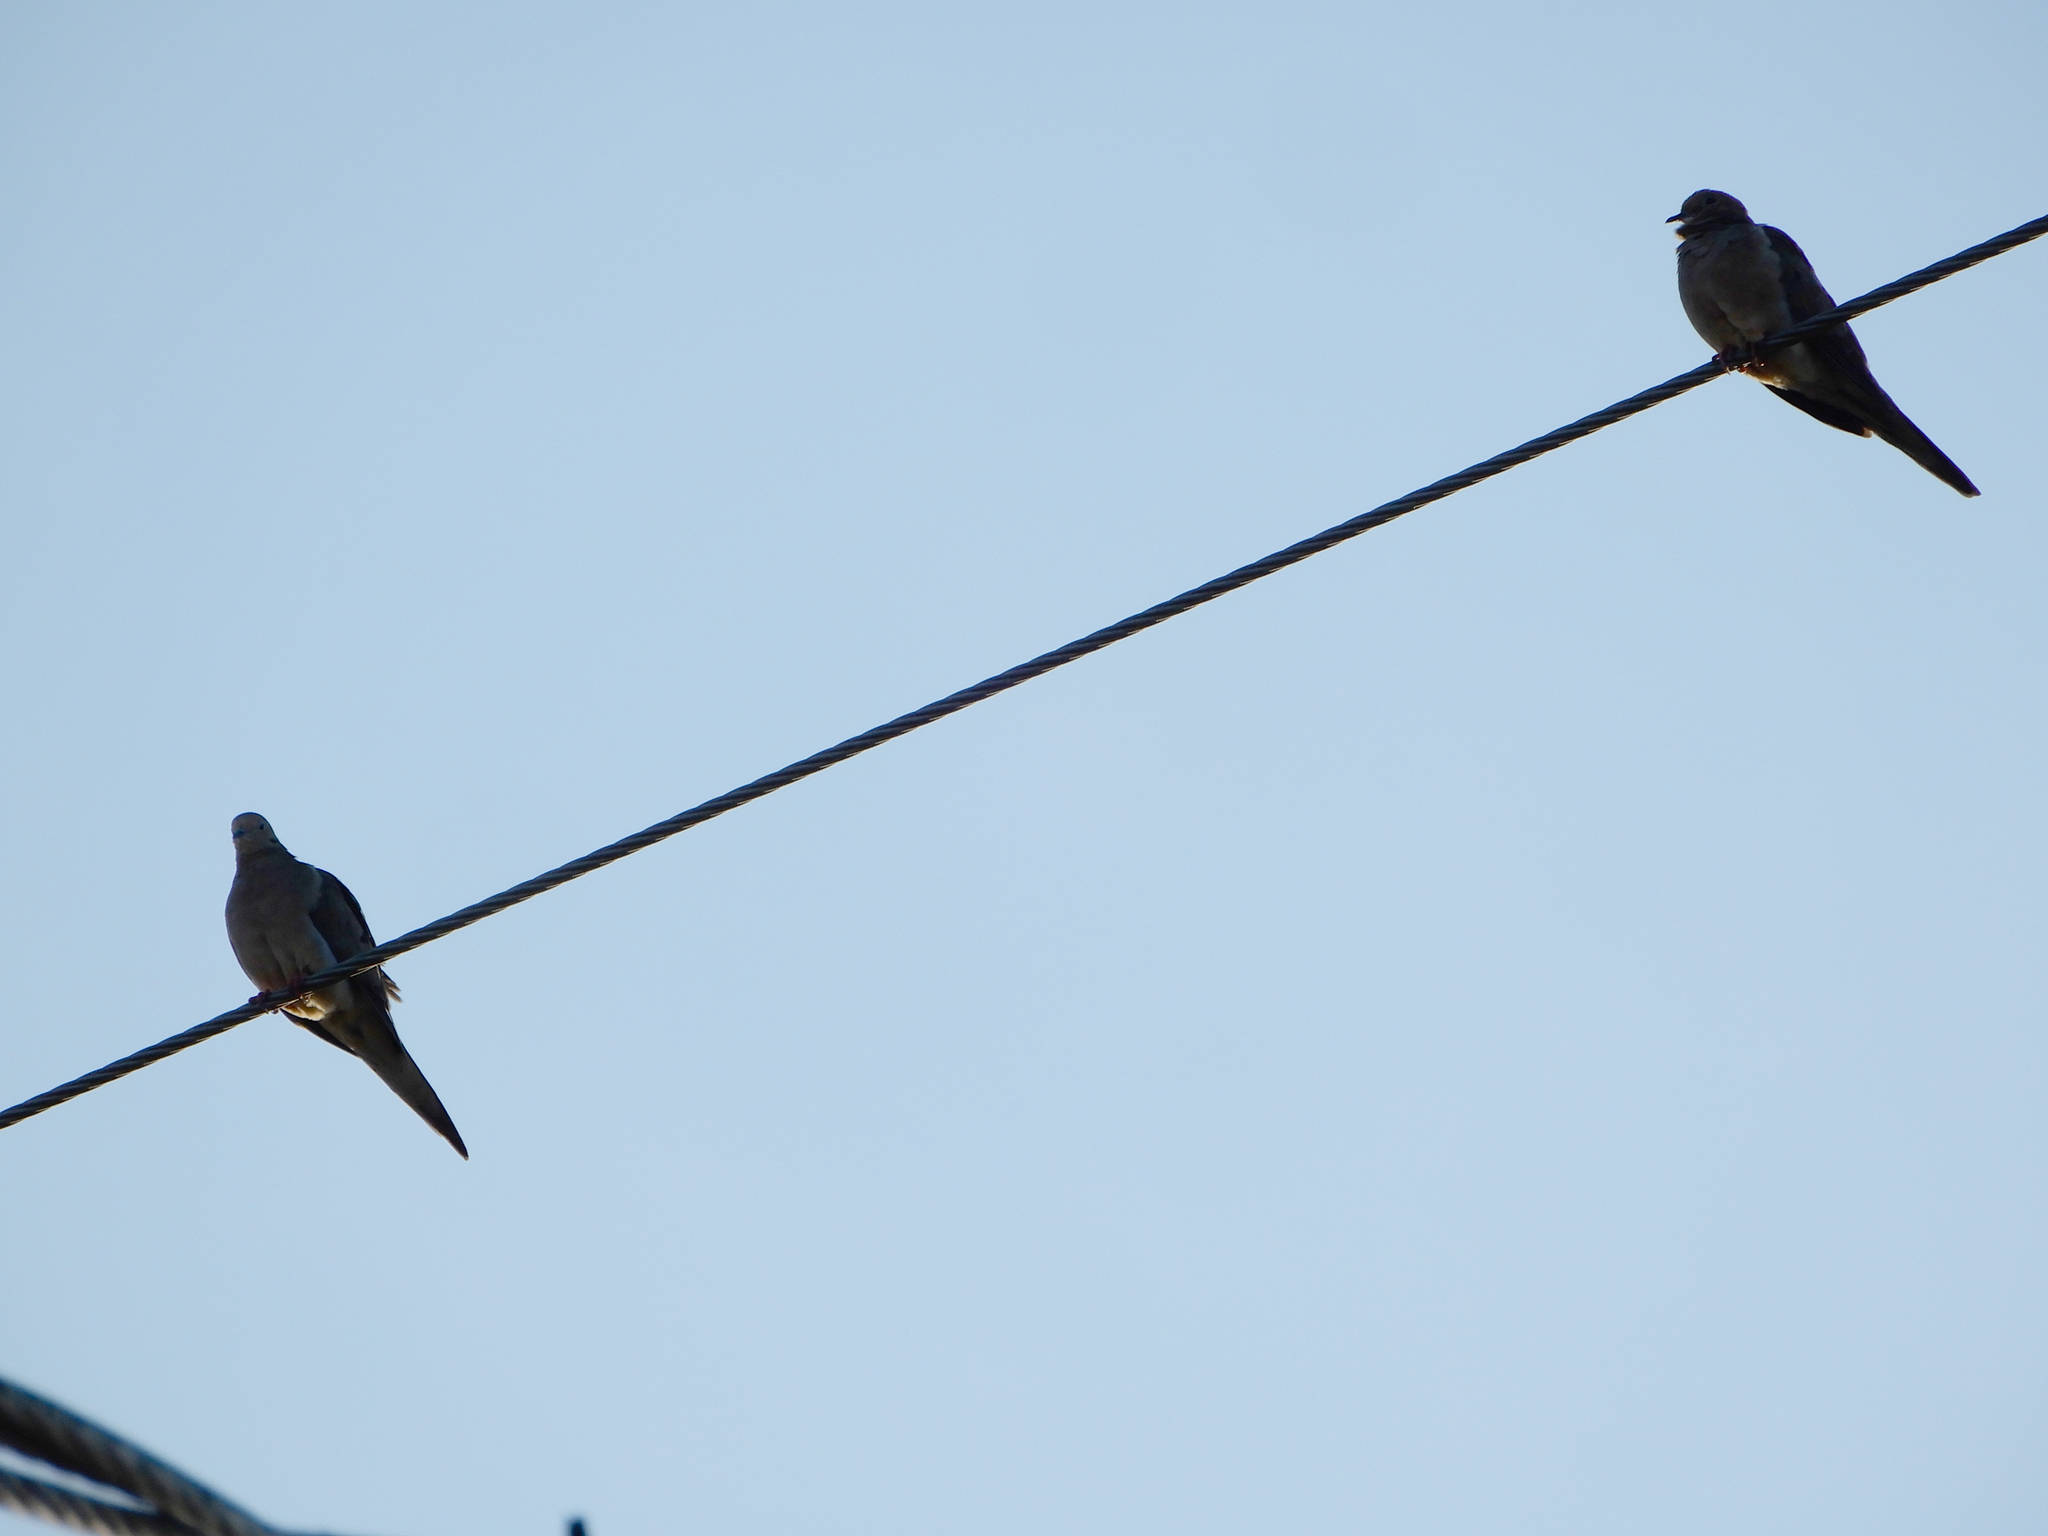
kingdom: Animalia
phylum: Chordata
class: Aves
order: Columbiformes
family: Columbidae
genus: Zenaida
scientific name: Zenaida macroura
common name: Mourning dove
